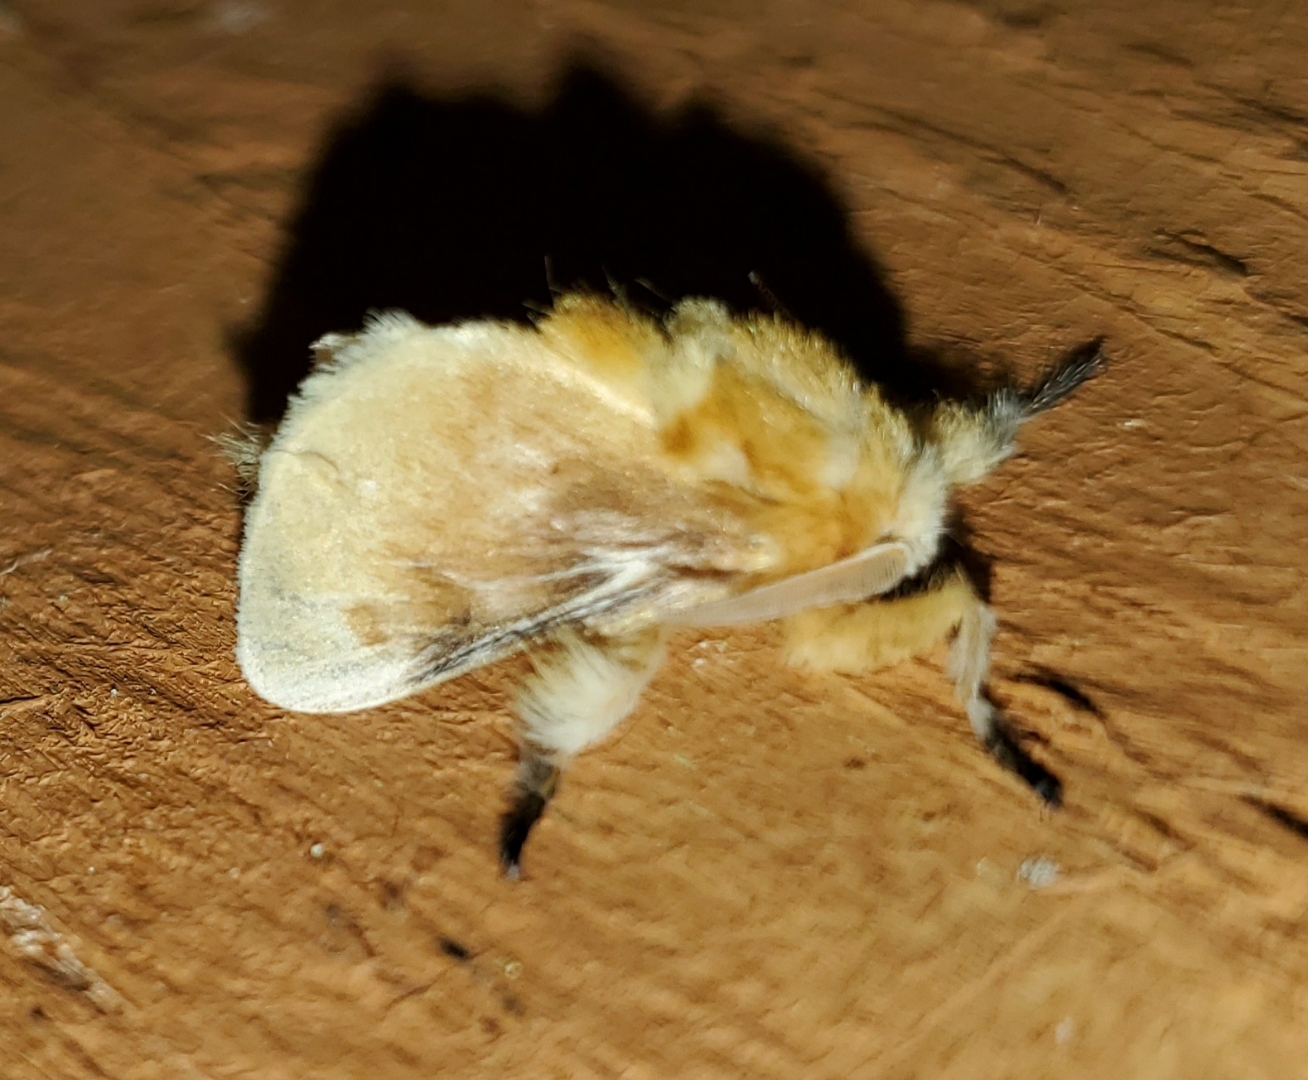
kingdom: Animalia
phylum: Arthropoda
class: Insecta
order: Lepidoptera
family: Megalopygidae
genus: Megalopyge
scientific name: Megalopyge opercularis
